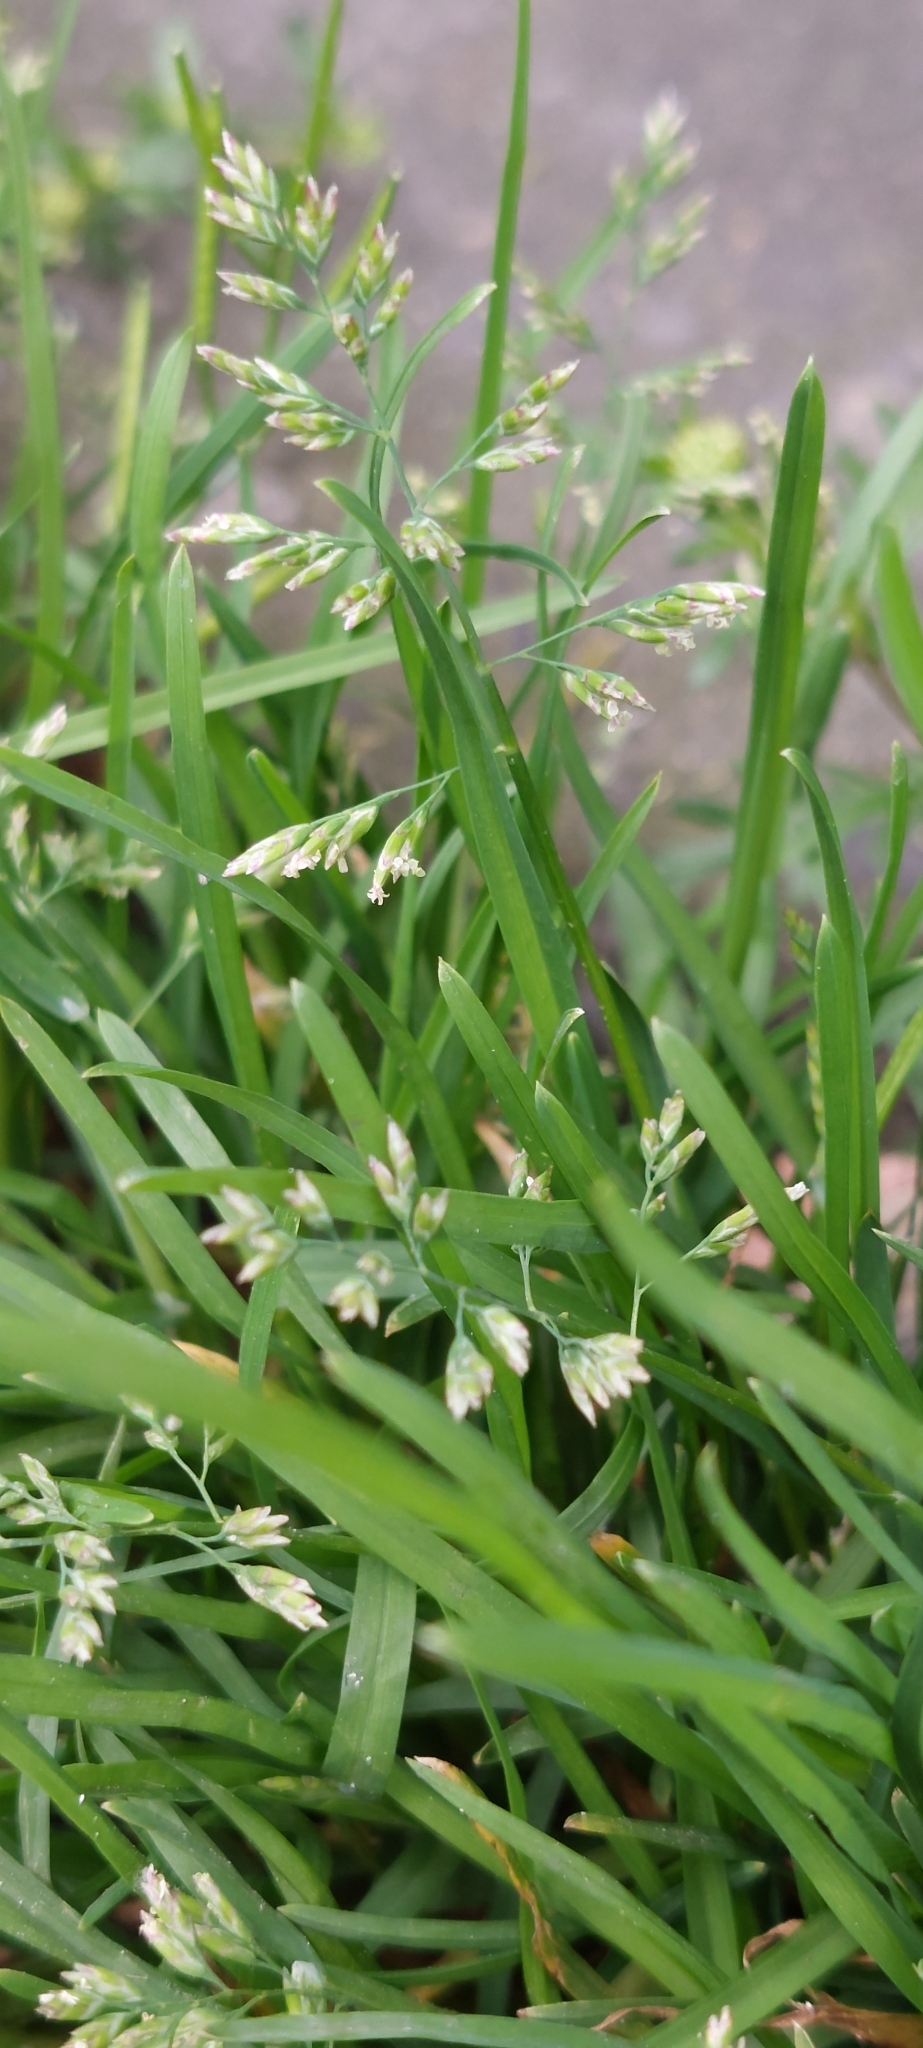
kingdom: Plantae
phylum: Tracheophyta
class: Liliopsida
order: Poales
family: Poaceae
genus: Poa
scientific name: Poa annua
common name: Annual bluegrass
